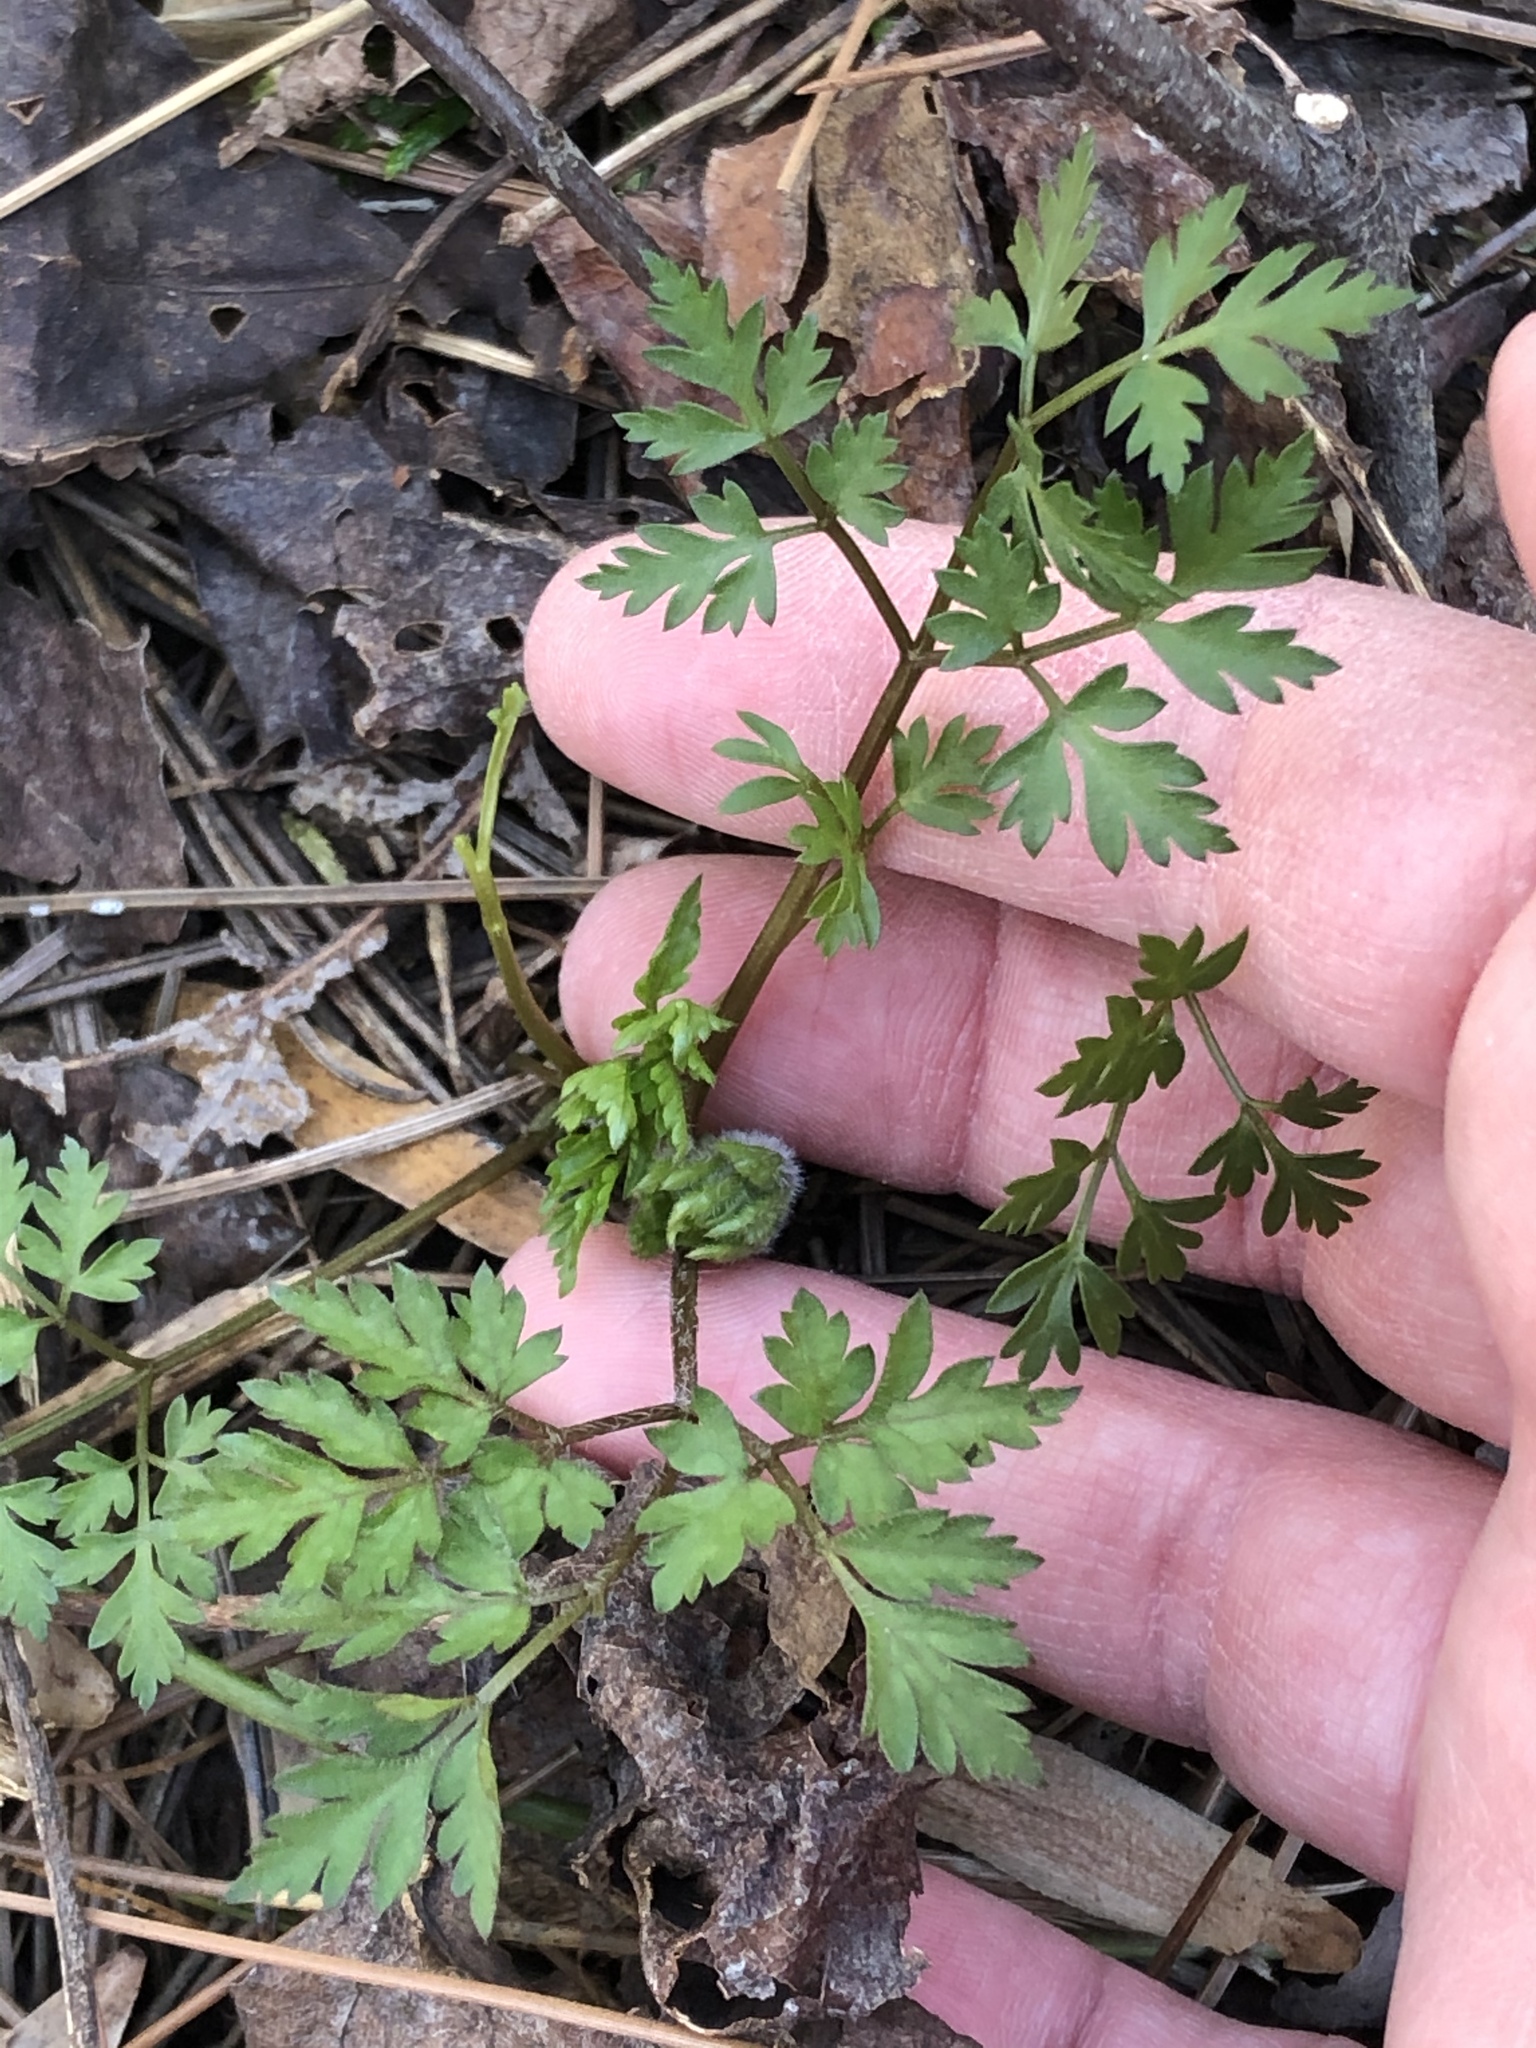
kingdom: Plantae
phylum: Tracheophyta
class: Magnoliopsida
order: Apiales
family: Apiaceae
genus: Osmorhiza
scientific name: Osmorhiza claytonii
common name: Hairy sweet cicely
